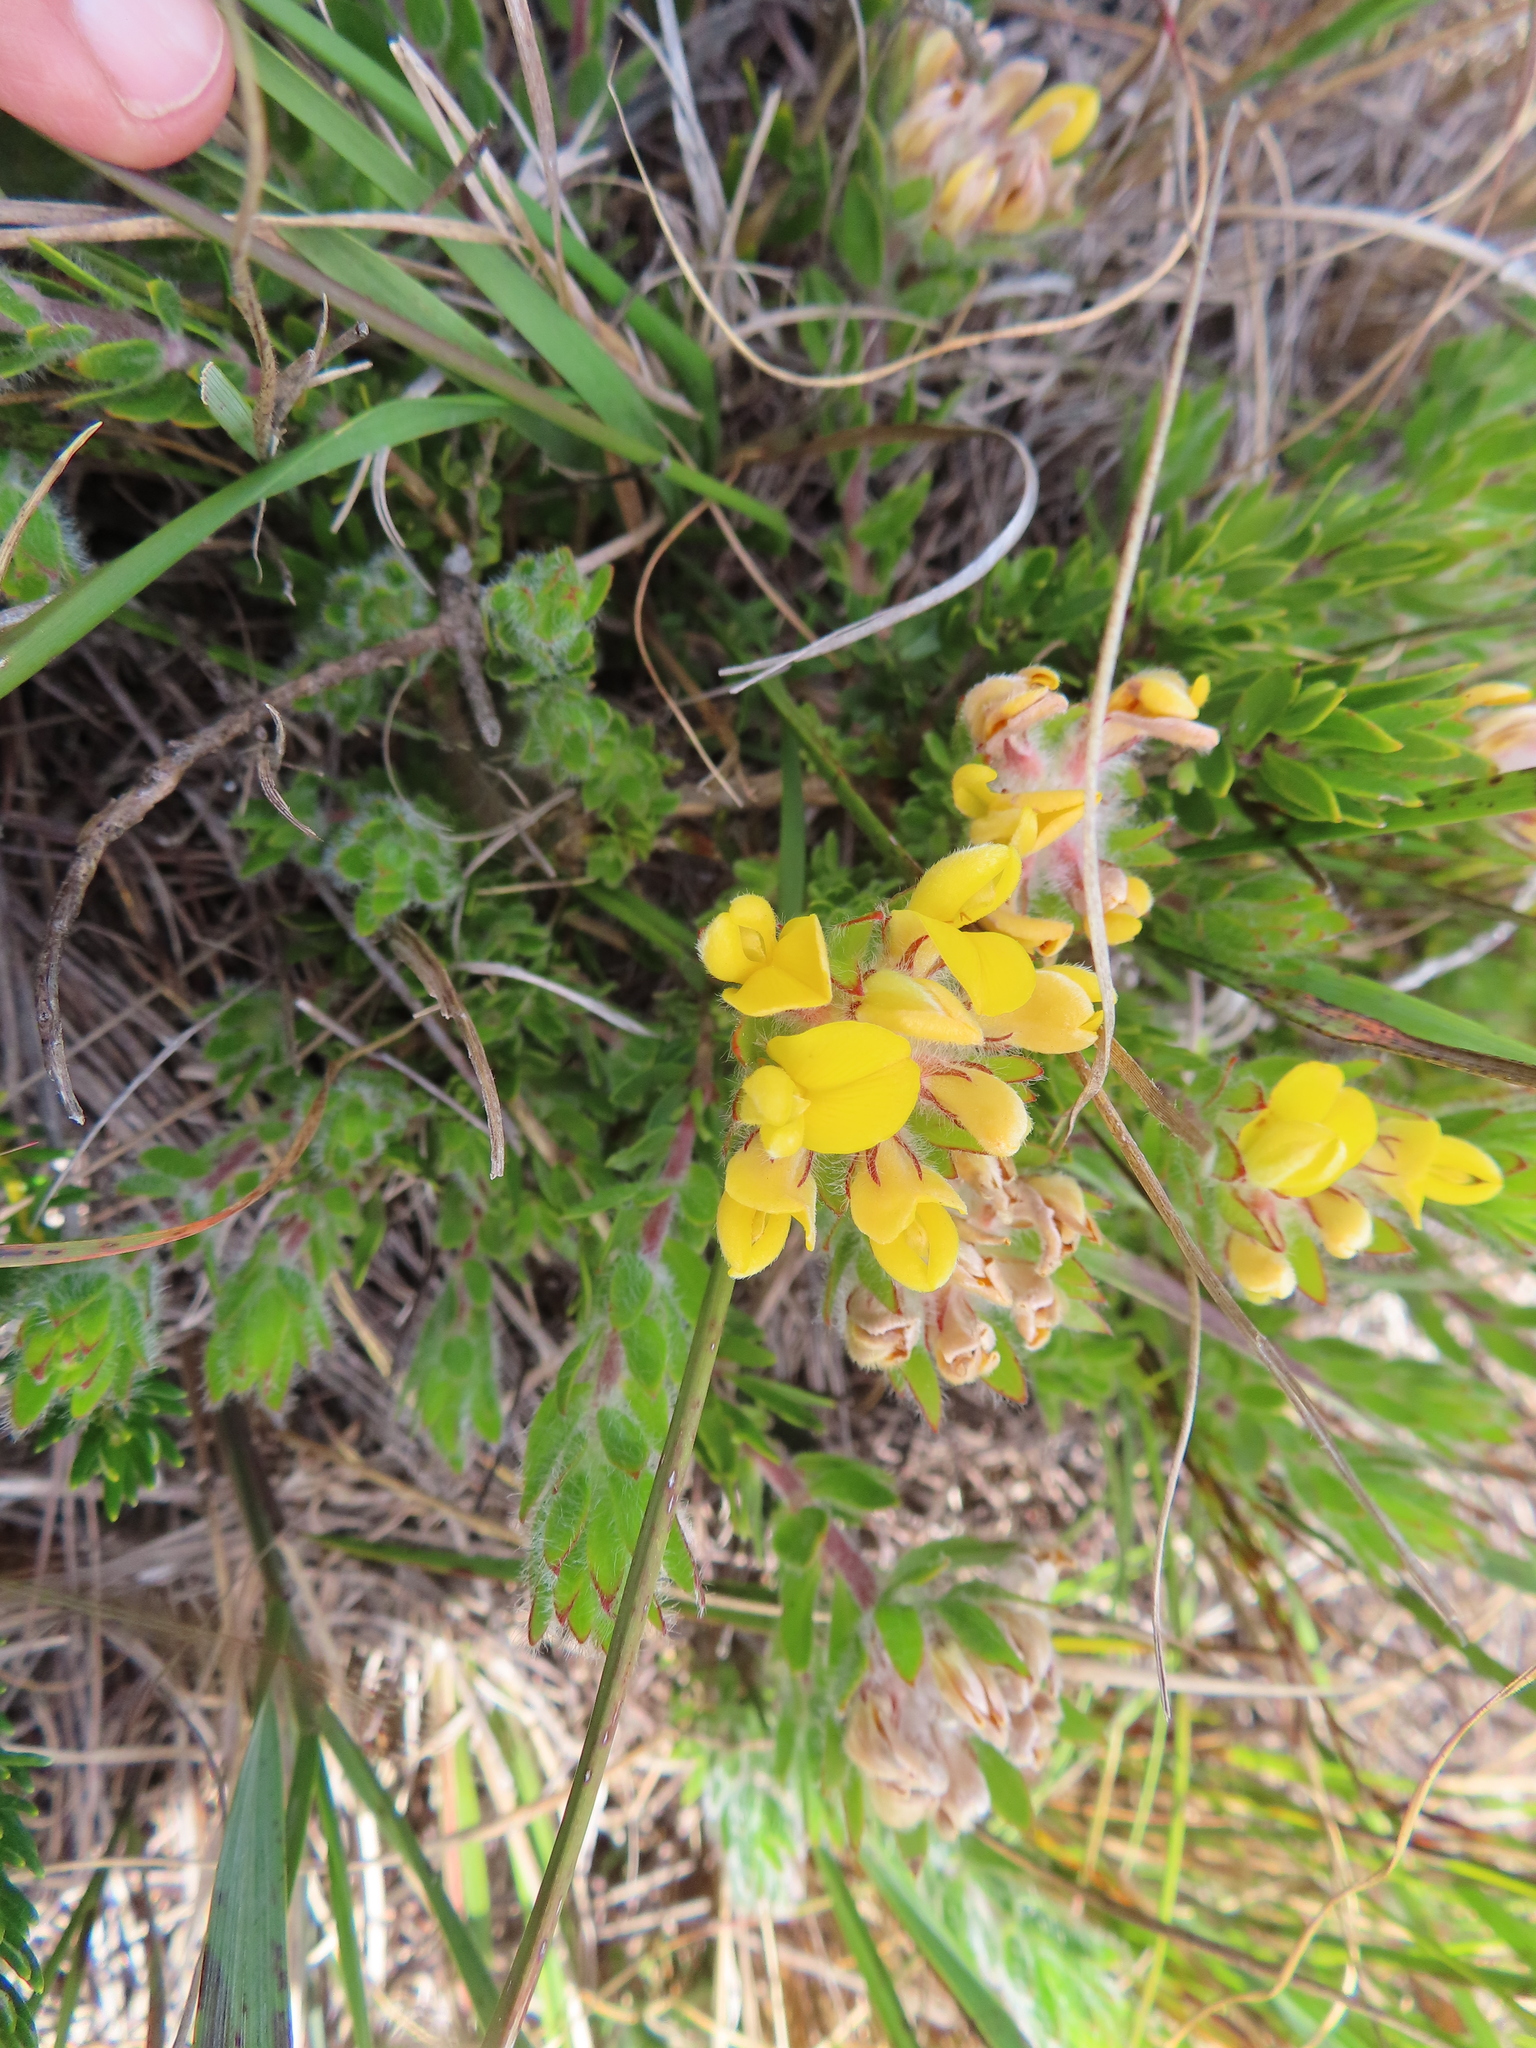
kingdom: Plantae
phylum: Tracheophyta
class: Magnoliopsida
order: Fabales
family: Fabaceae
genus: Aspalathus
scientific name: Aspalathus aspalathoides
